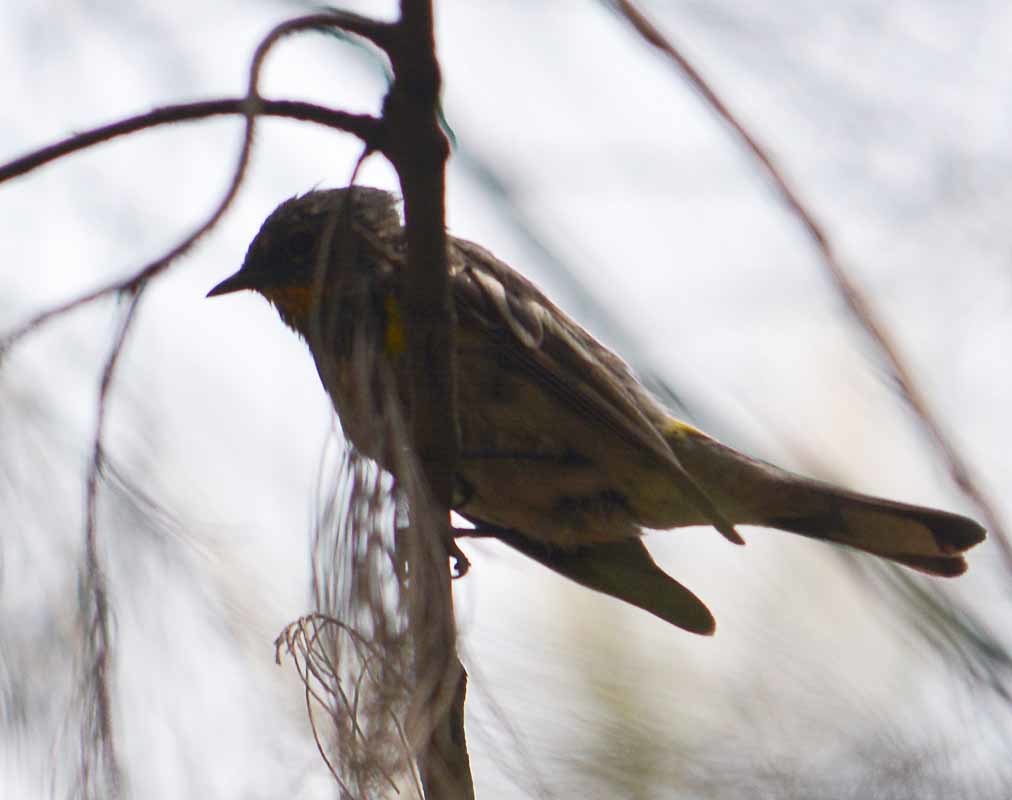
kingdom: Animalia
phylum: Chordata
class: Aves
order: Passeriformes
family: Parulidae
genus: Setophaga
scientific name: Setophaga auduboni
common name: Audubon's warbler
